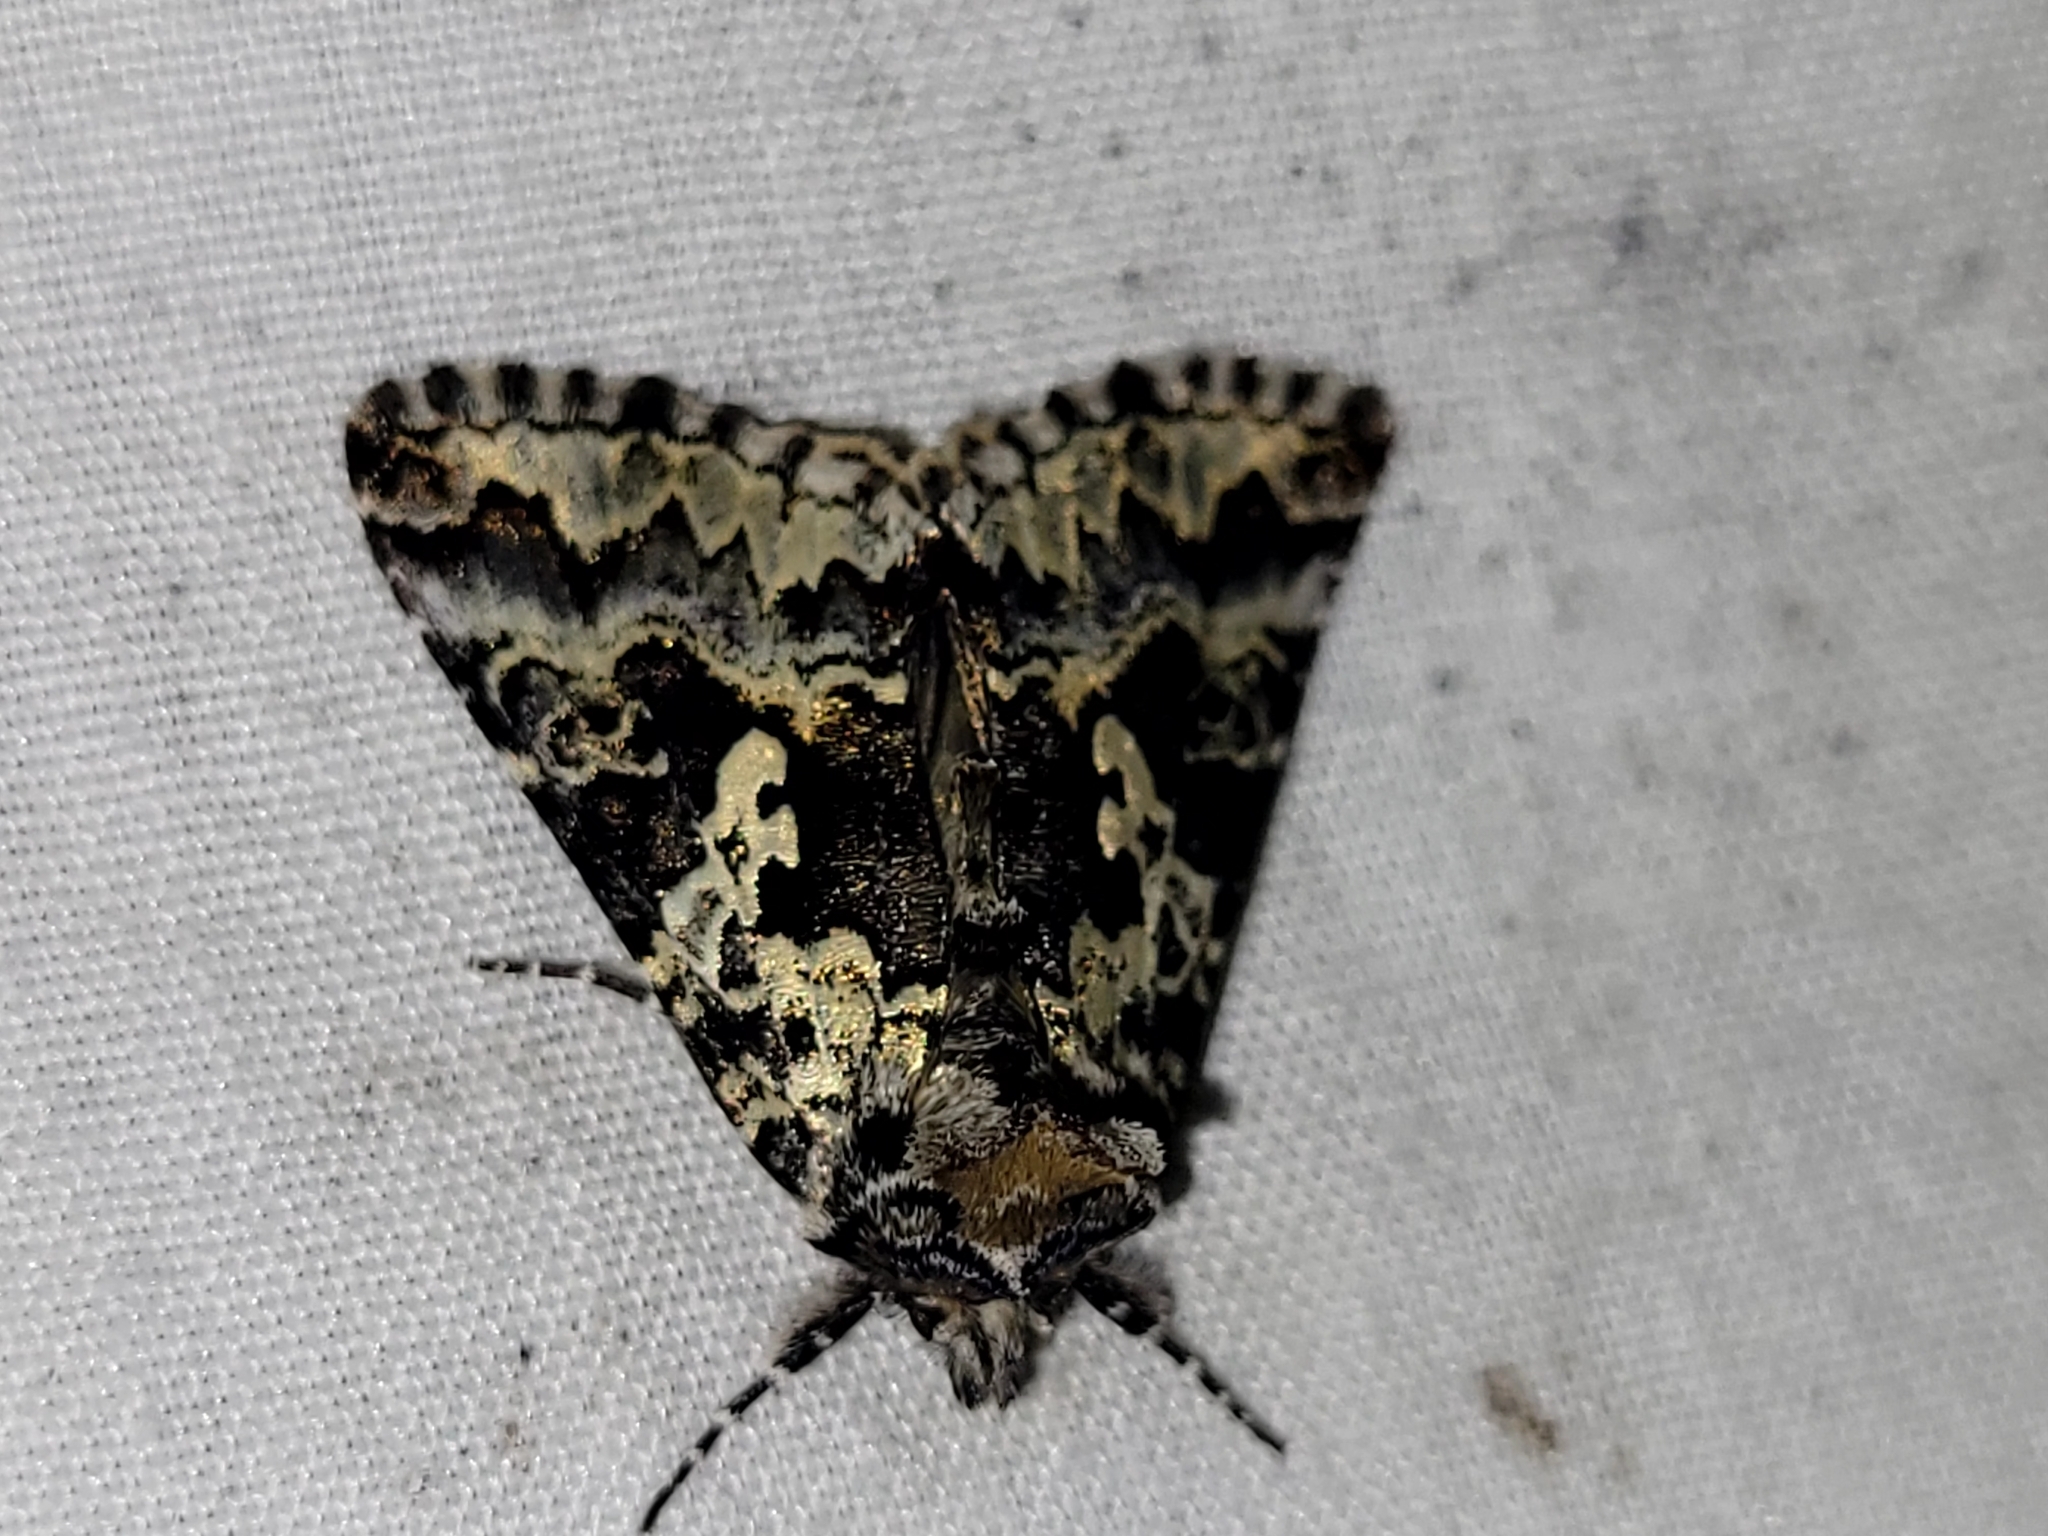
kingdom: Animalia
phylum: Arthropoda
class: Insecta
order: Lepidoptera
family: Noctuidae
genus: Syngrapha
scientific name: Syngrapha rectangula
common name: Angulated cutworm
